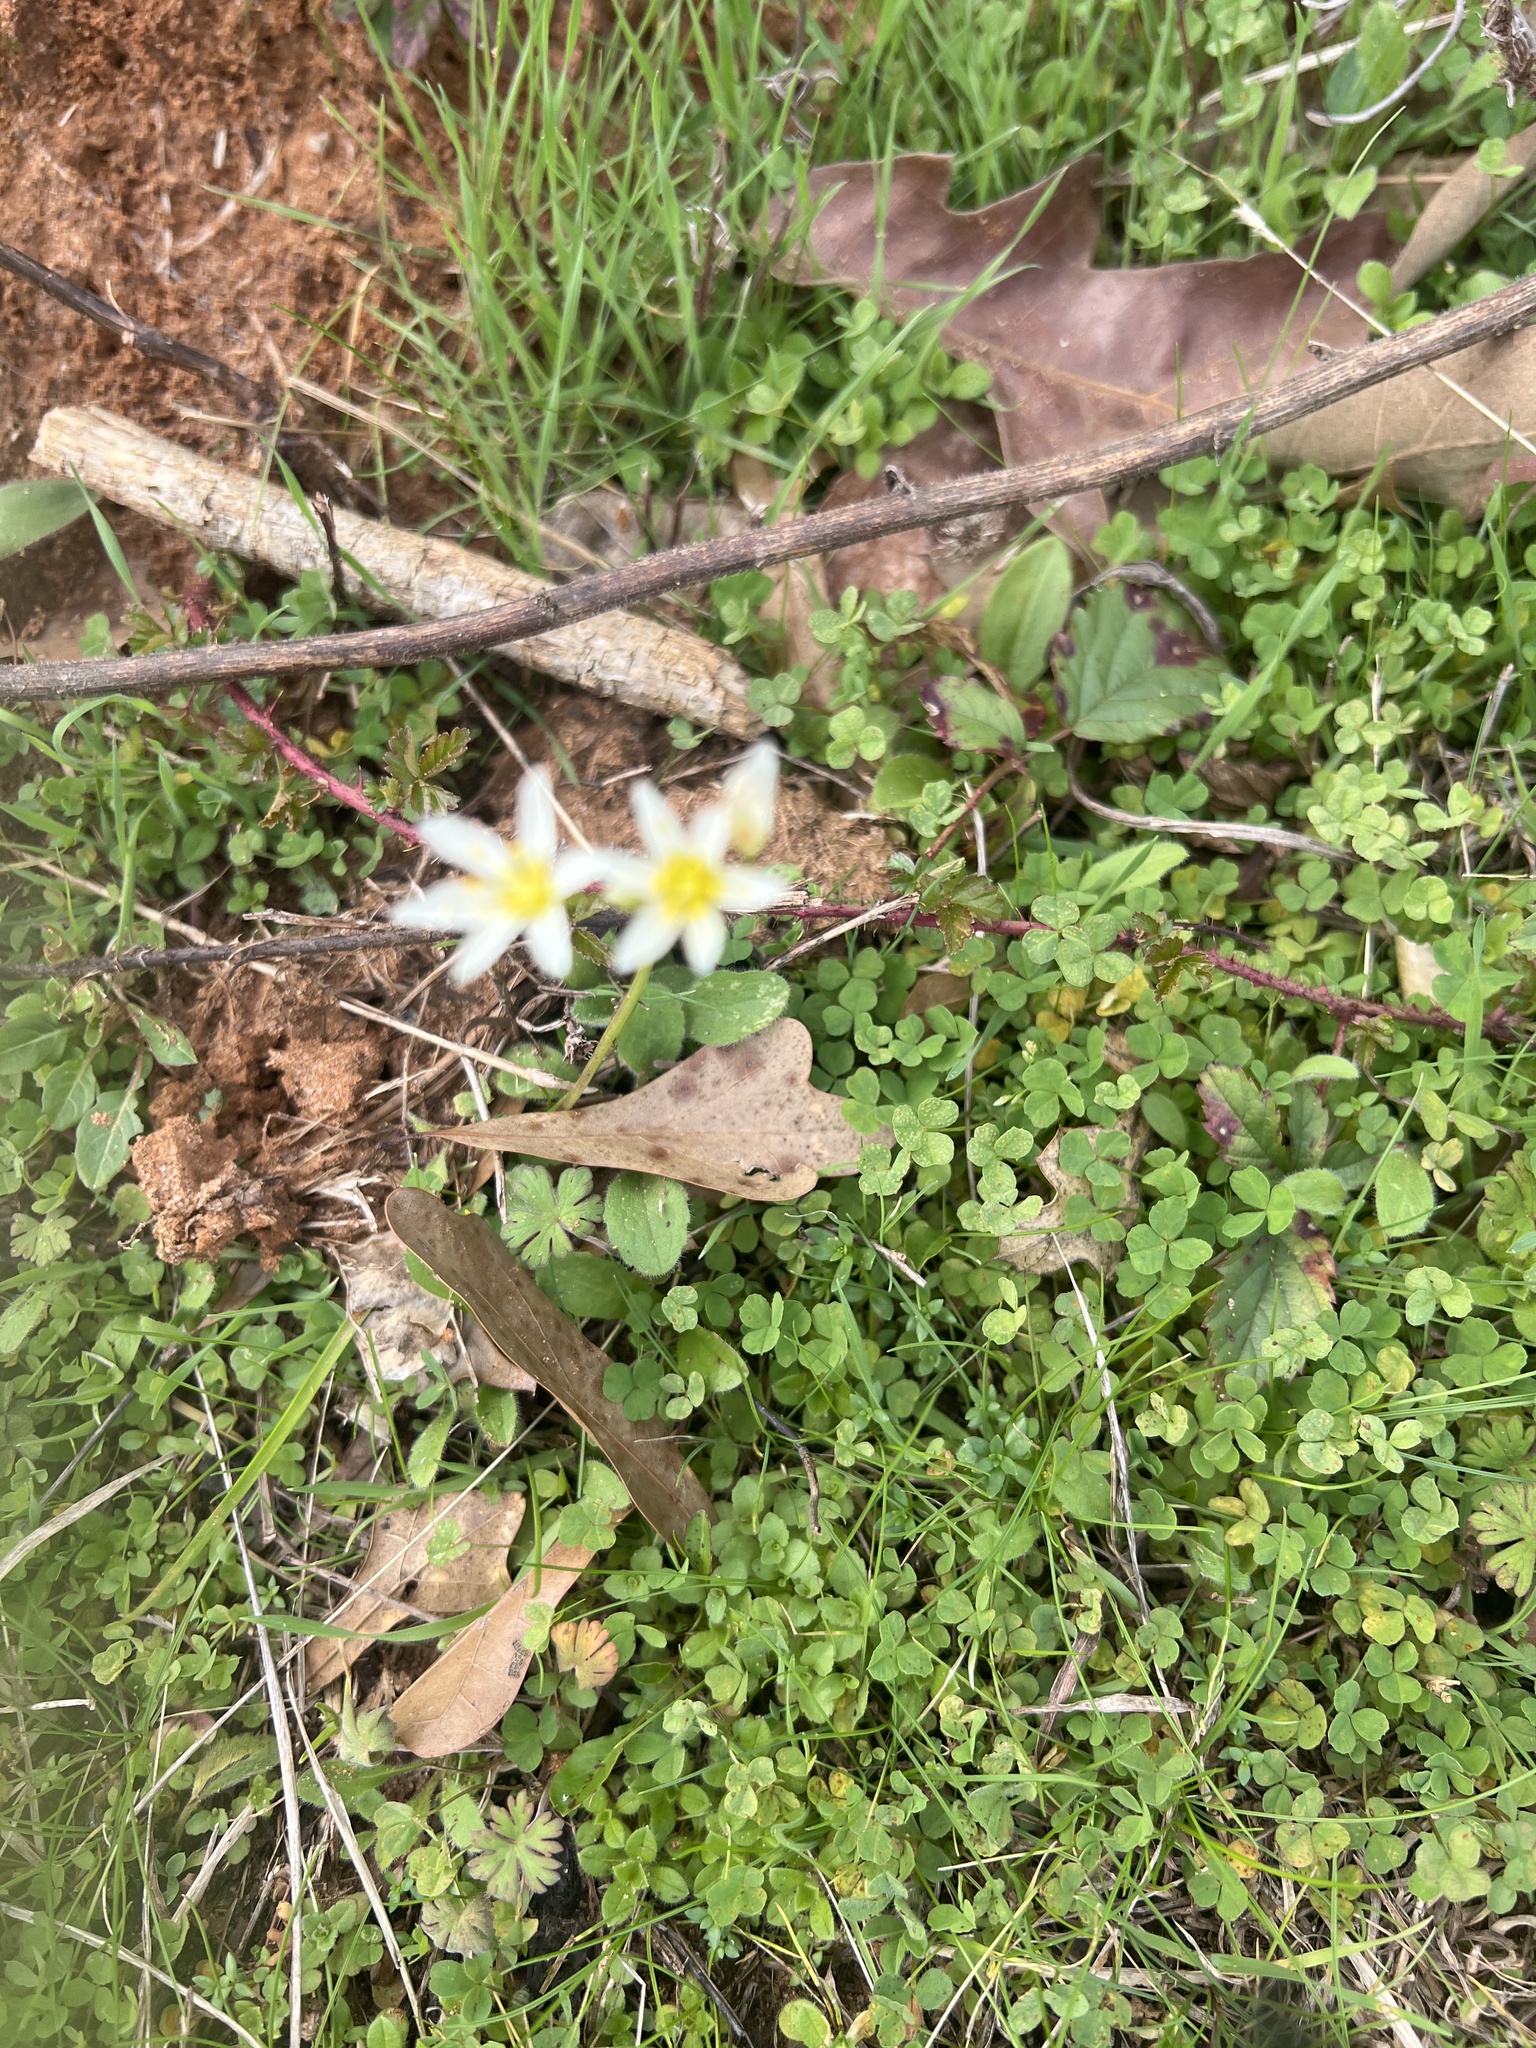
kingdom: Plantae
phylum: Tracheophyta
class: Liliopsida
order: Asparagales
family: Amaryllidaceae
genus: Nothoscordum
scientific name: Nothoscordum bivalve
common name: Crow-poison
